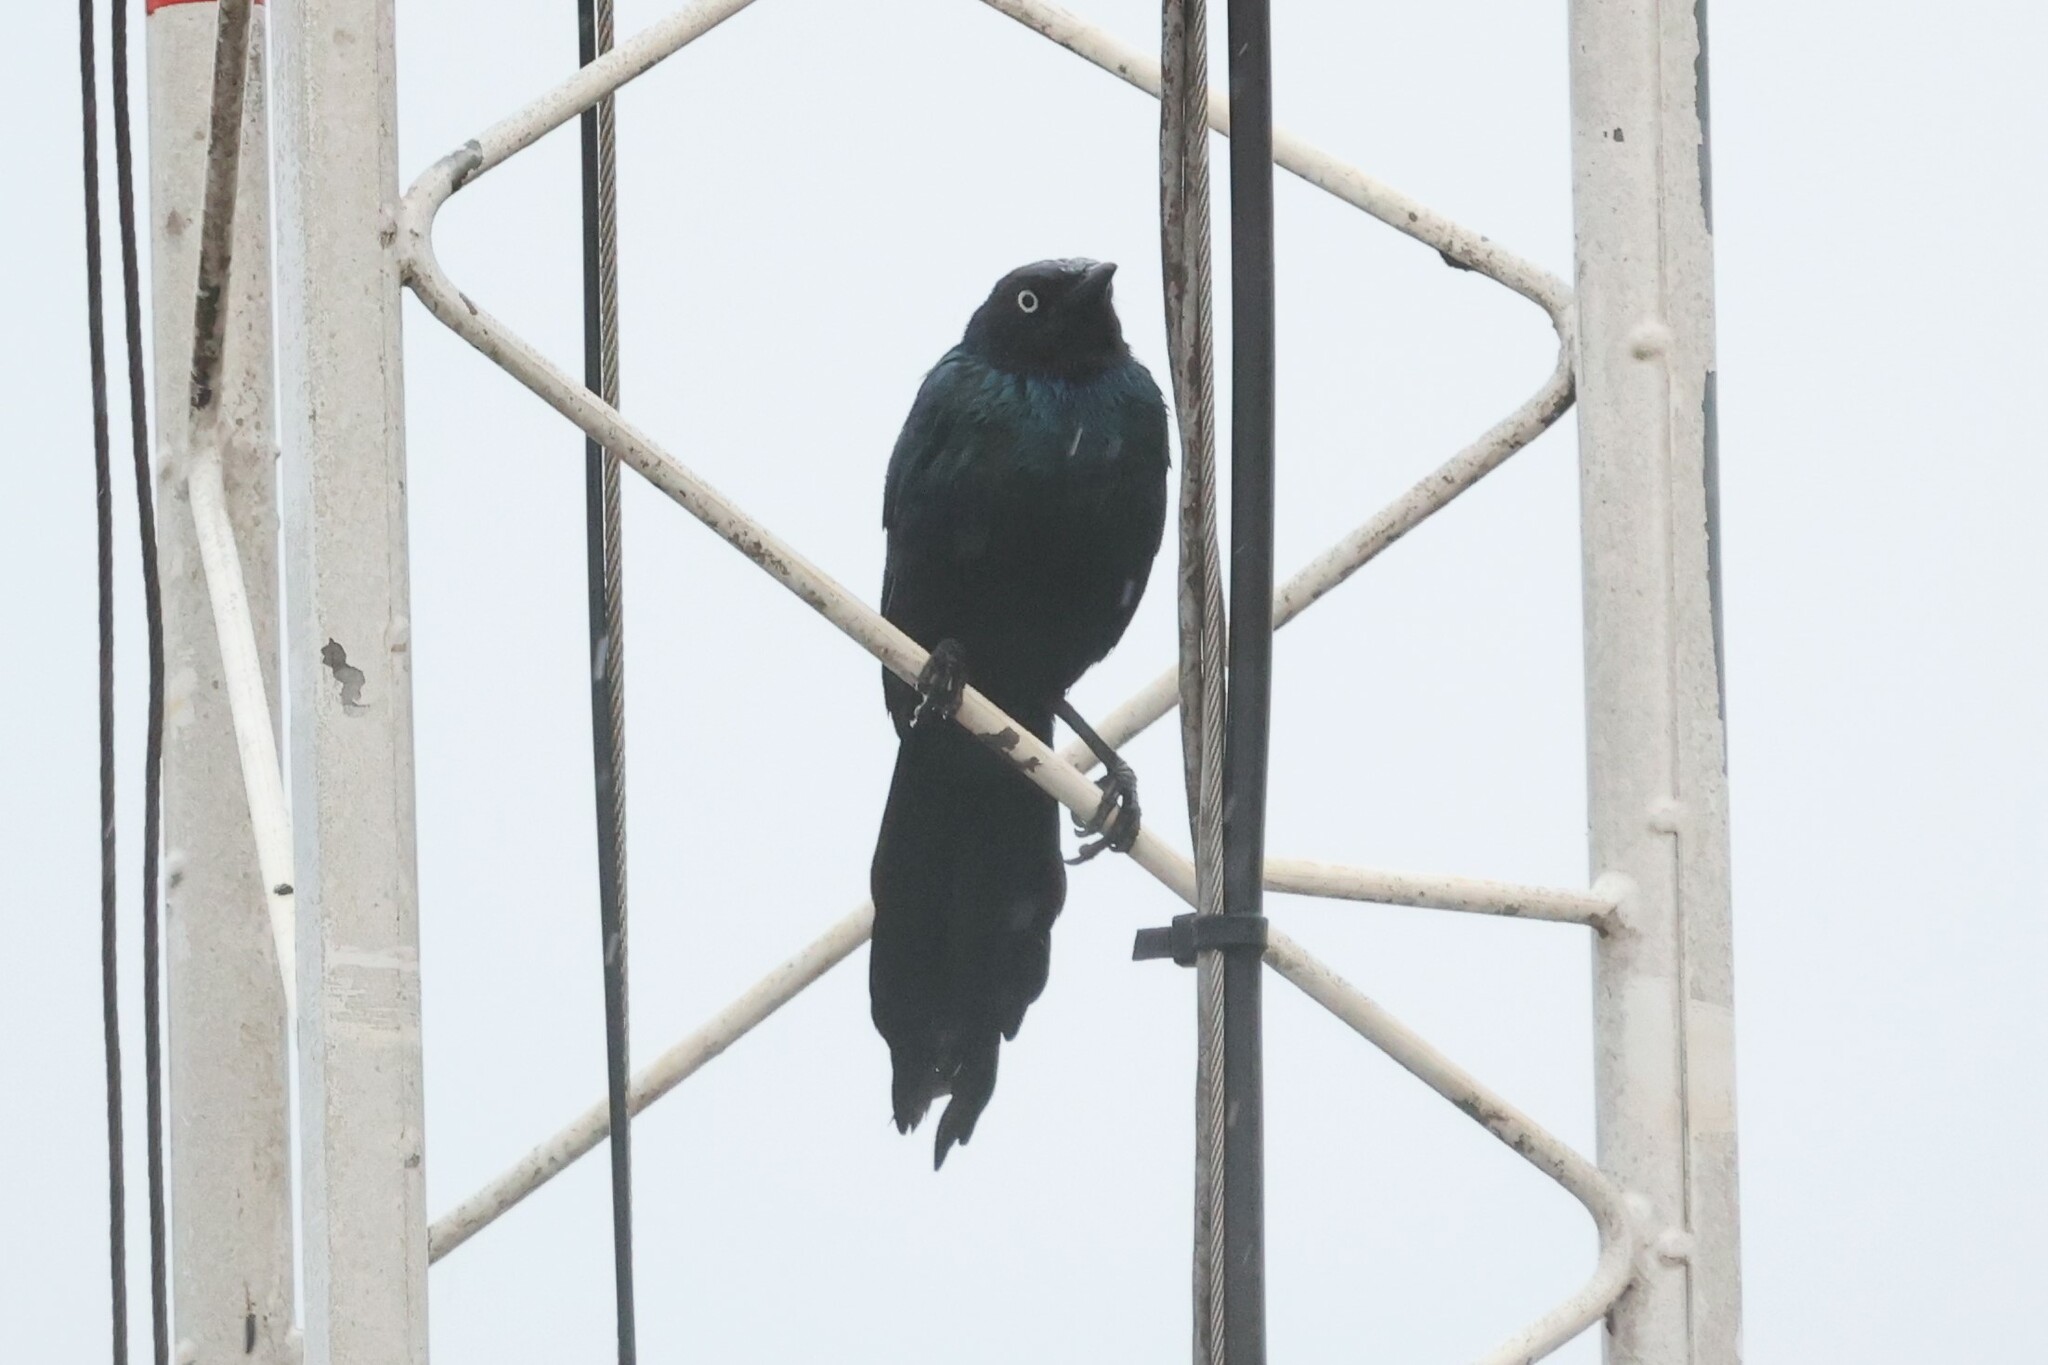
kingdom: Animalia
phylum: Chordata
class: Aves
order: Passeriformes
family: Sturnidae
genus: Lamprotornis
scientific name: Lamprotornis purpuroptera
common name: Rüppell's starling
